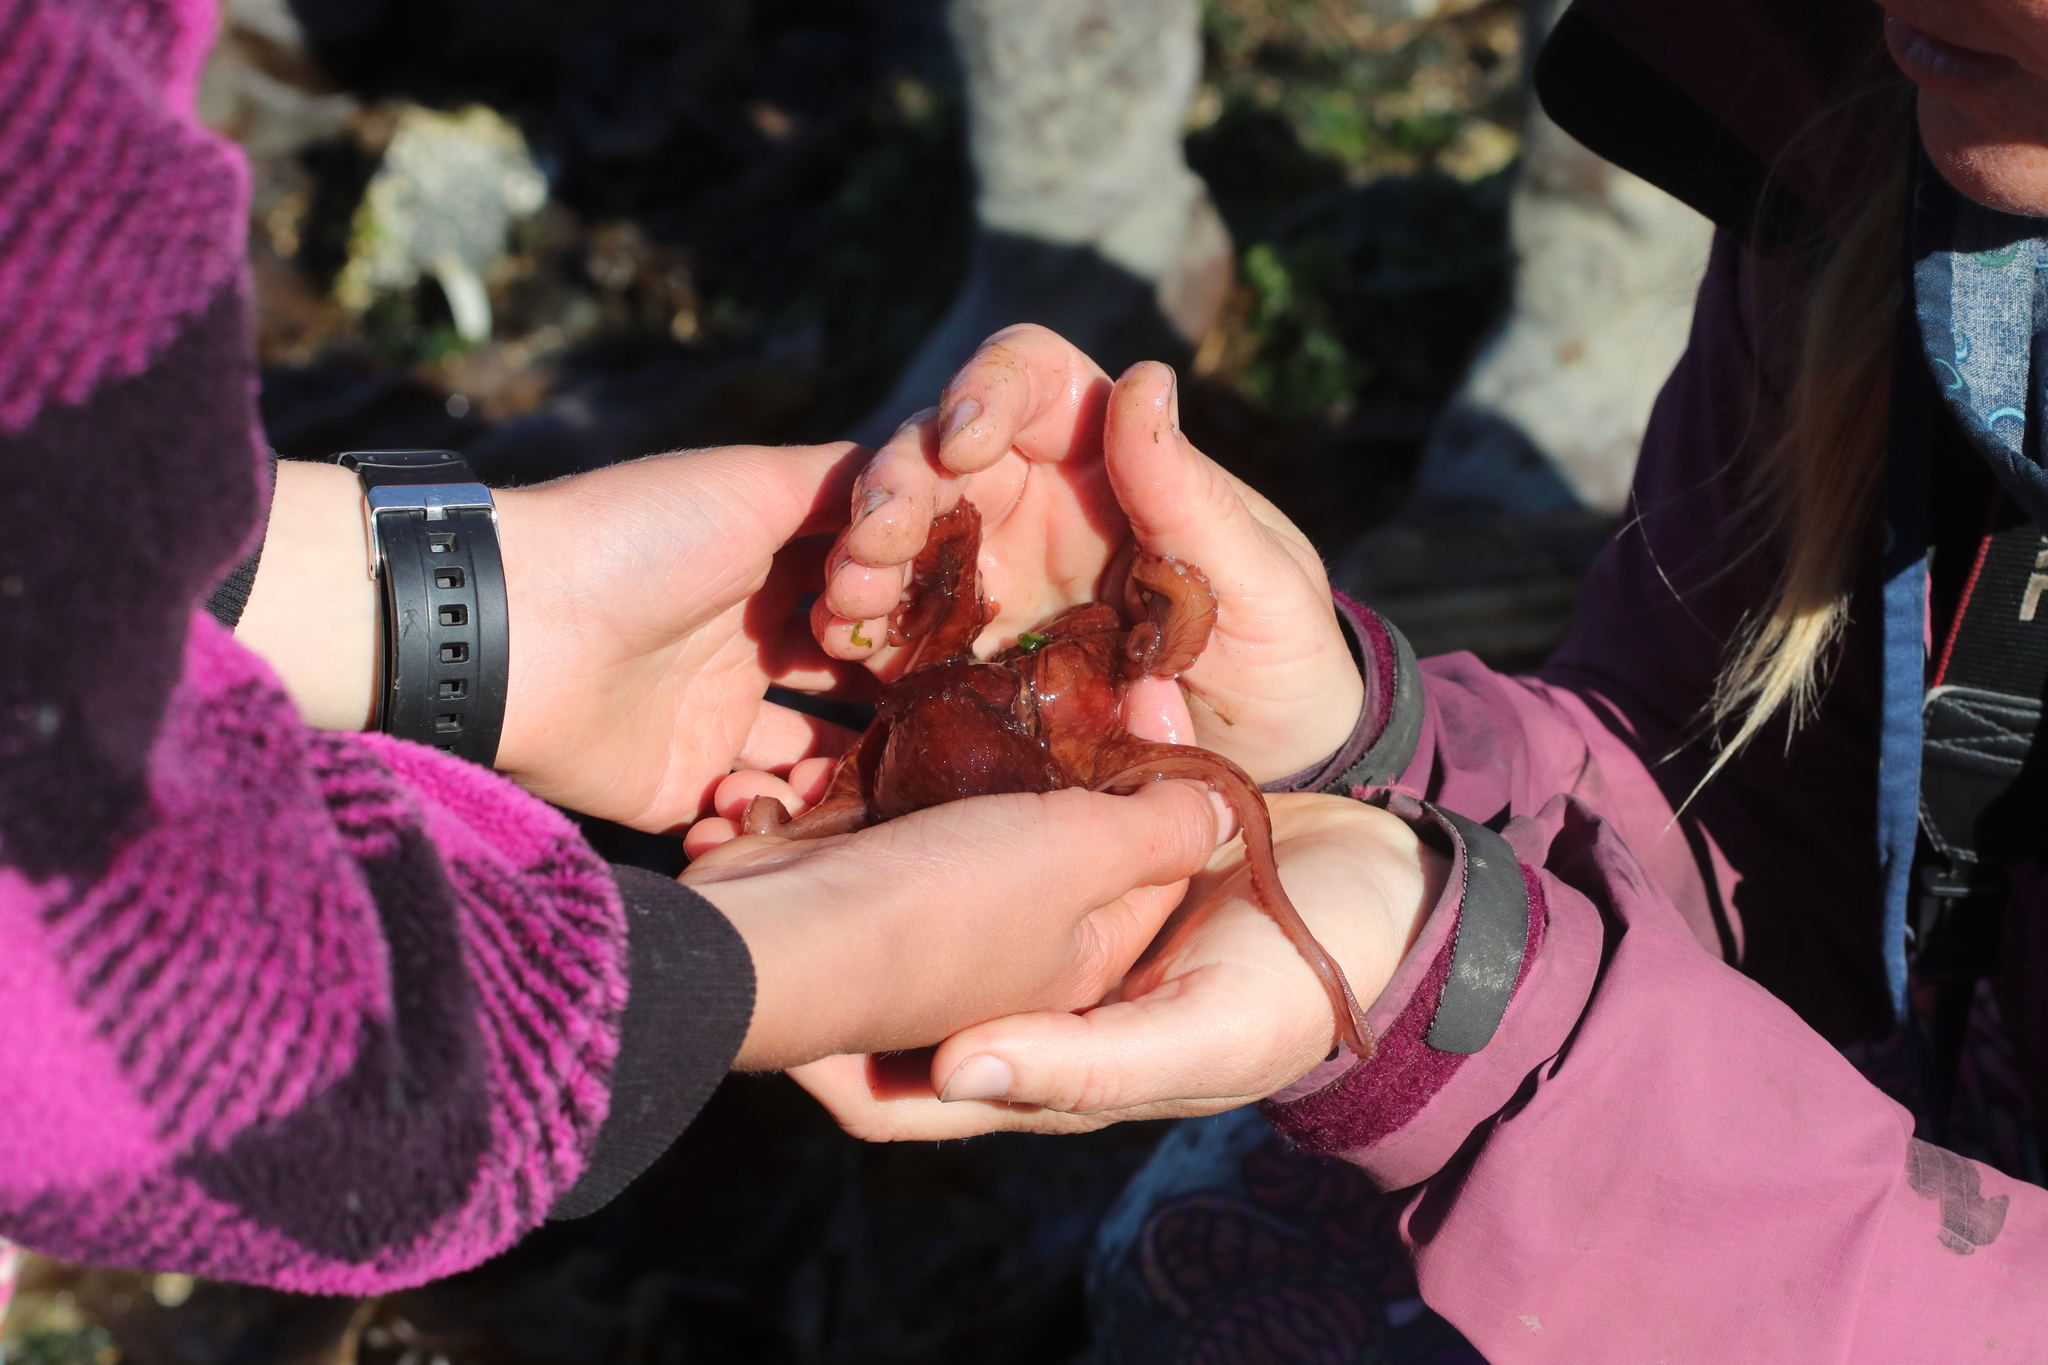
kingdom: Animalia
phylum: Mollusca
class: Cephalopoda
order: Octopoda
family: Enteroctopodidae
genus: Enteroctopus
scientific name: Enteroctopus dofleini
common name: Giant north pacific octopus
